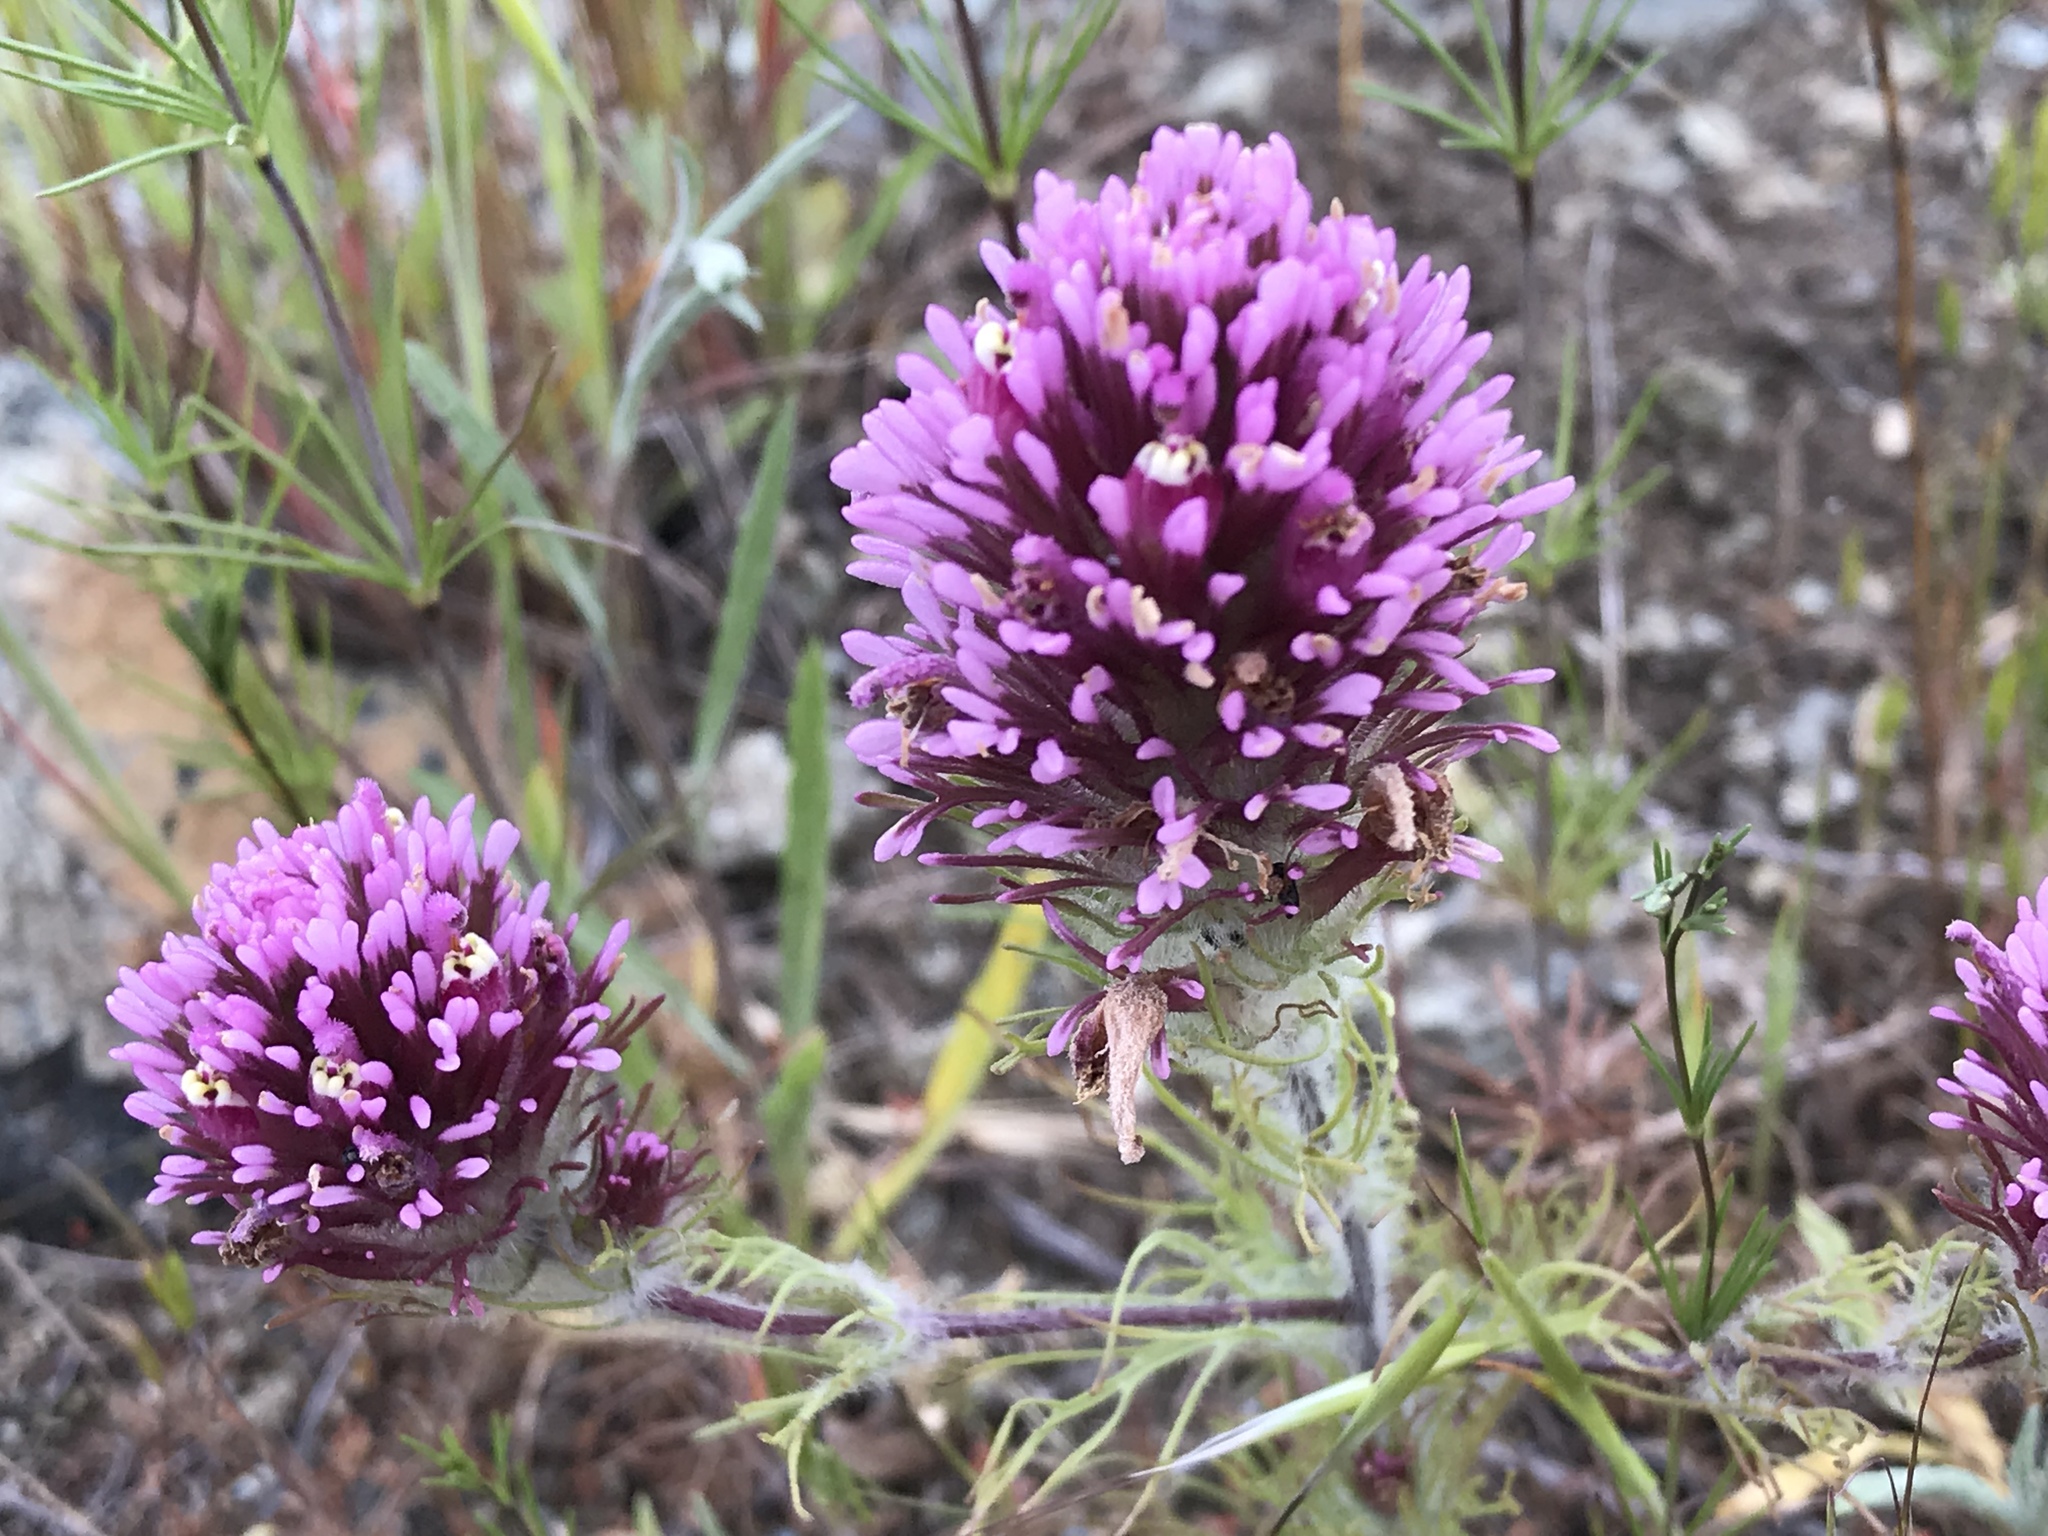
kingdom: Plantae
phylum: Tracheophyta
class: Magnoliopsida
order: Lamiales
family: Orobanchaceae
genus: Castilleja
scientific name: Castilleja exserta
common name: Purple owl-clover
